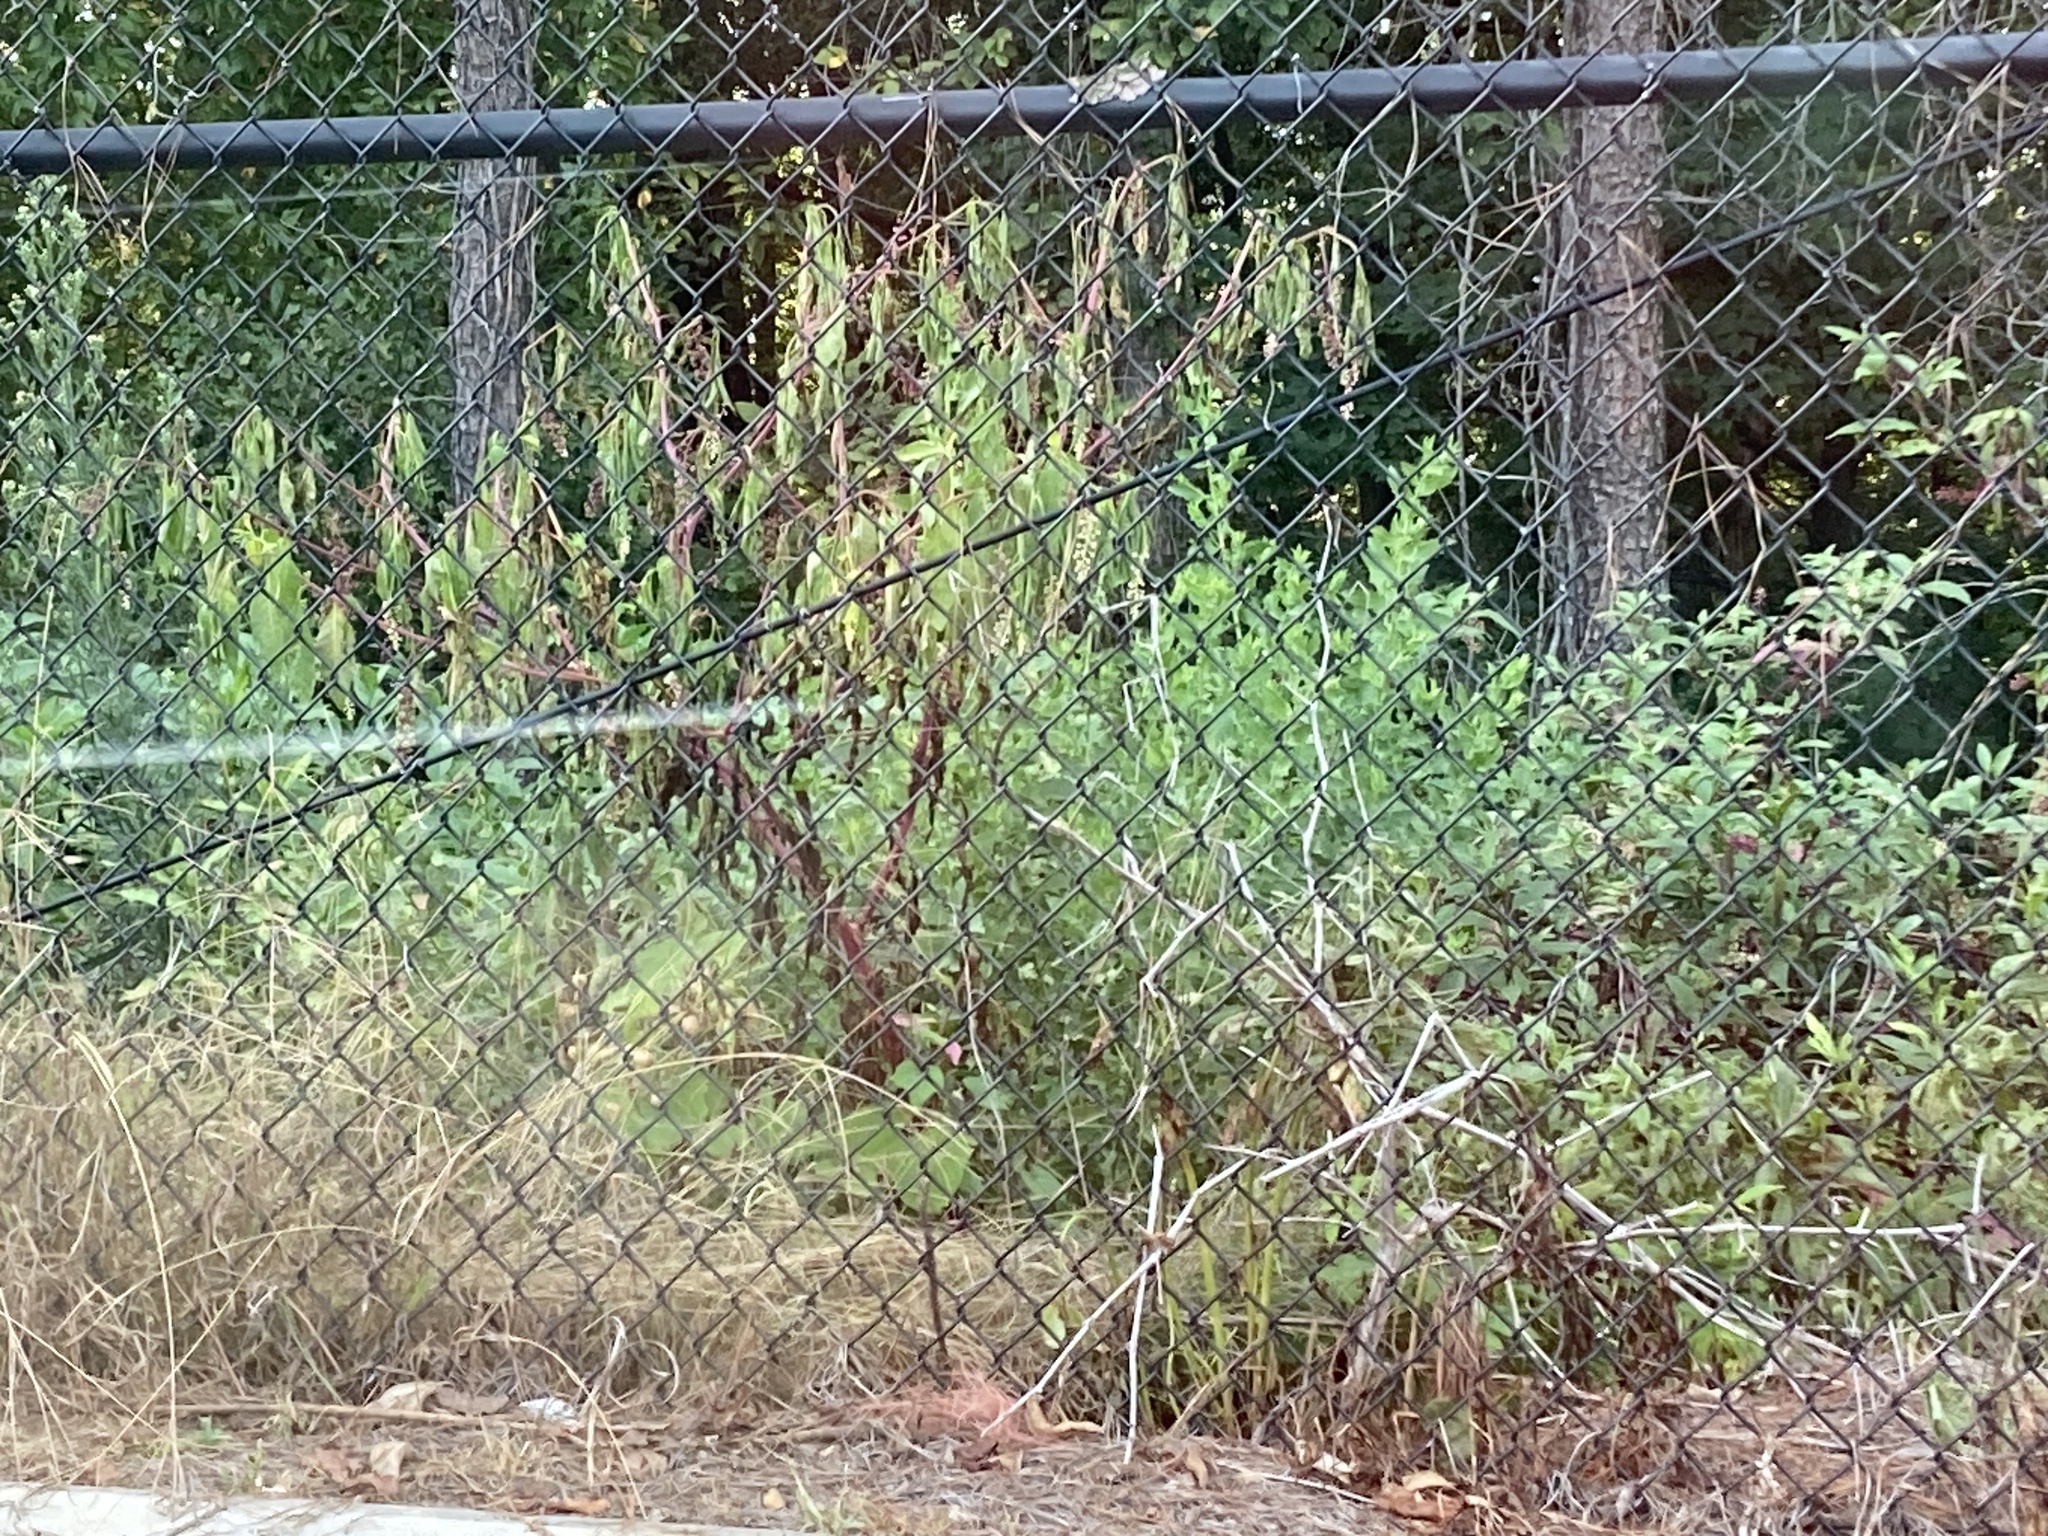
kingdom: Plantae
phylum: Tracheophyta
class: Magnoliopsida
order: Caryophyllales
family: Phytolaccaceae
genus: Phytolacca
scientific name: Phytolacca americana
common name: American pokeweed
